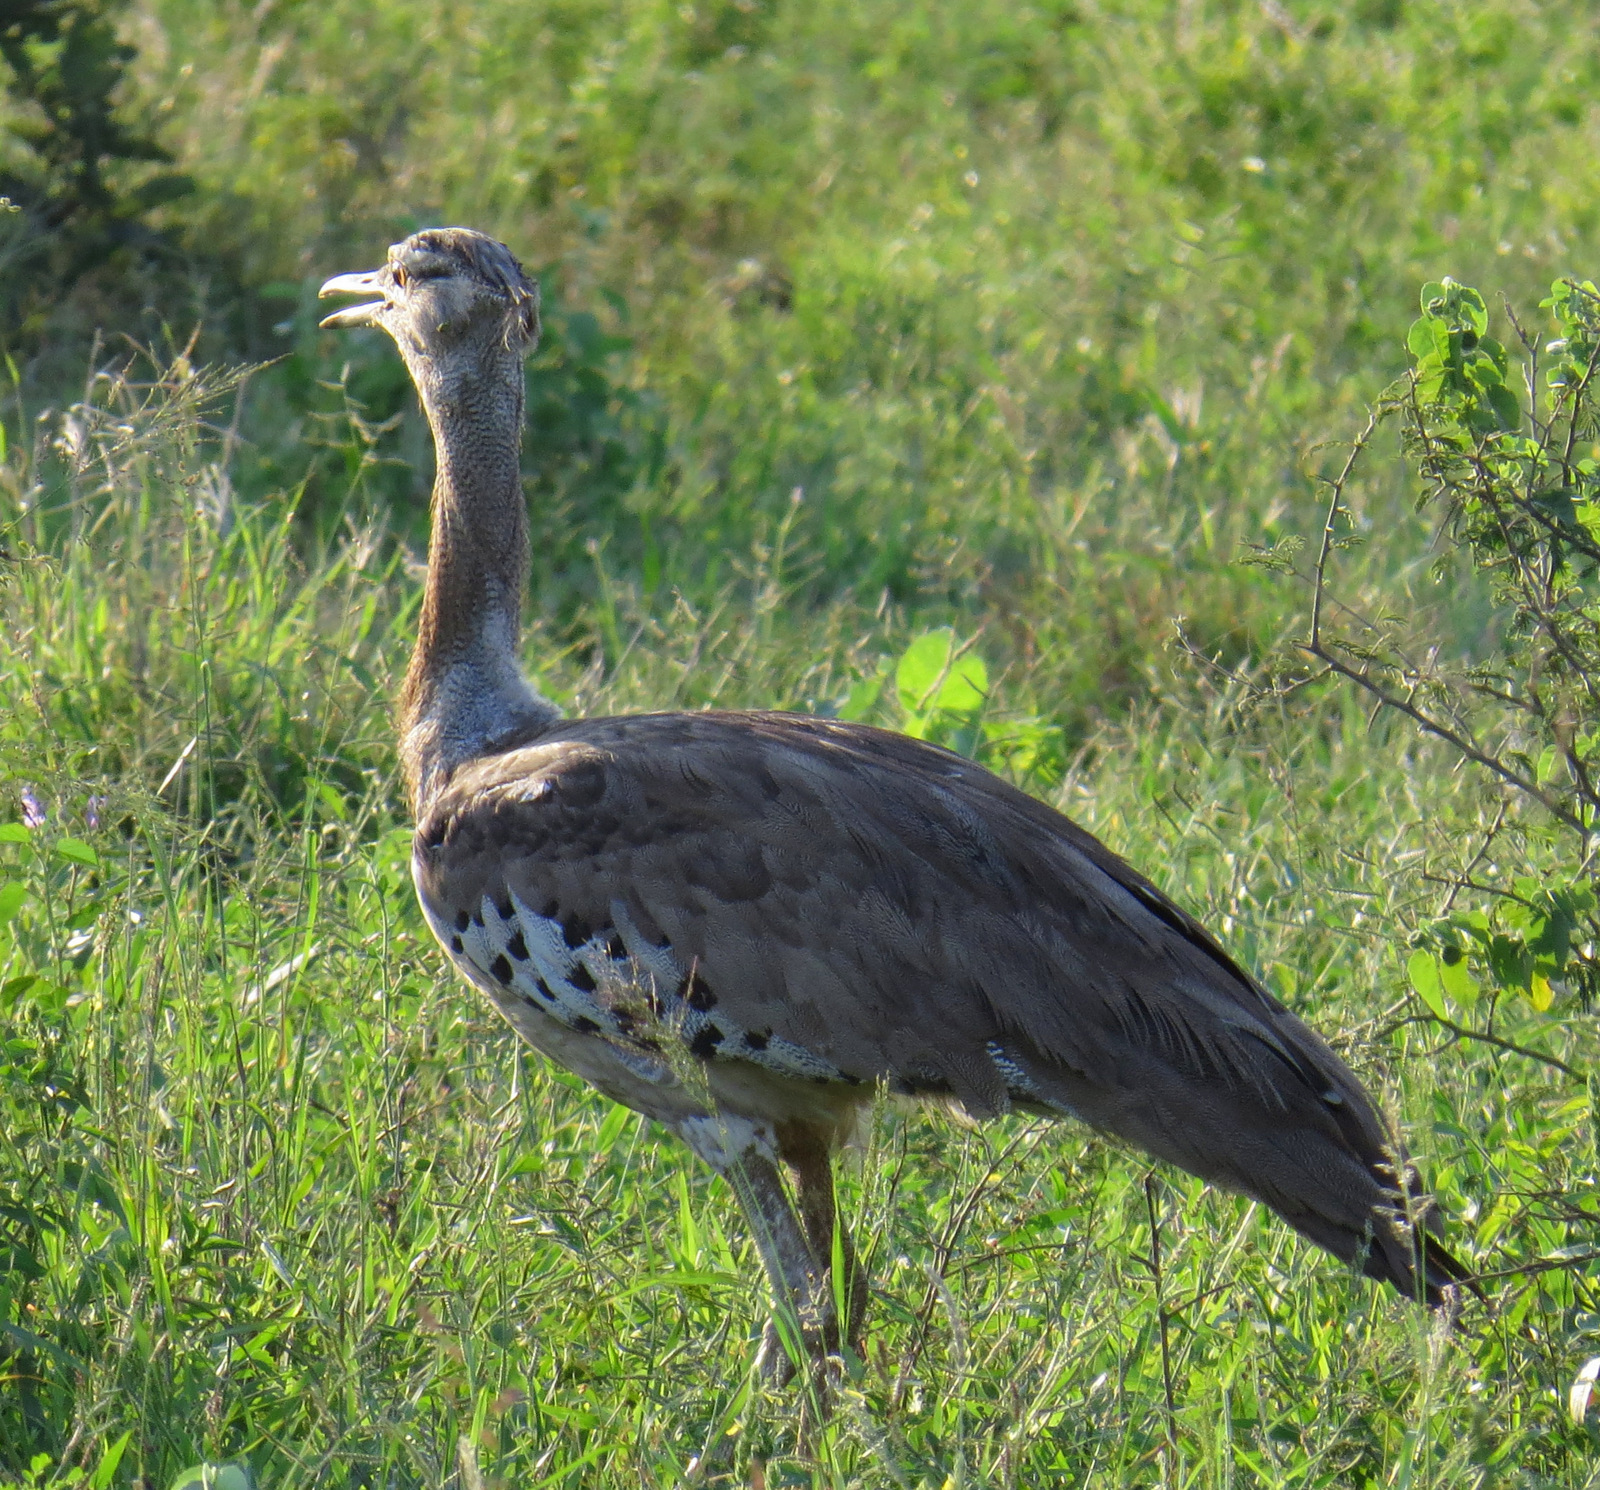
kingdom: Animalia
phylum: Chordata
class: Aves
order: Otidiformes
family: Otididae
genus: Ardeotis
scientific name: Ardeotis kori
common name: Kori bustard
